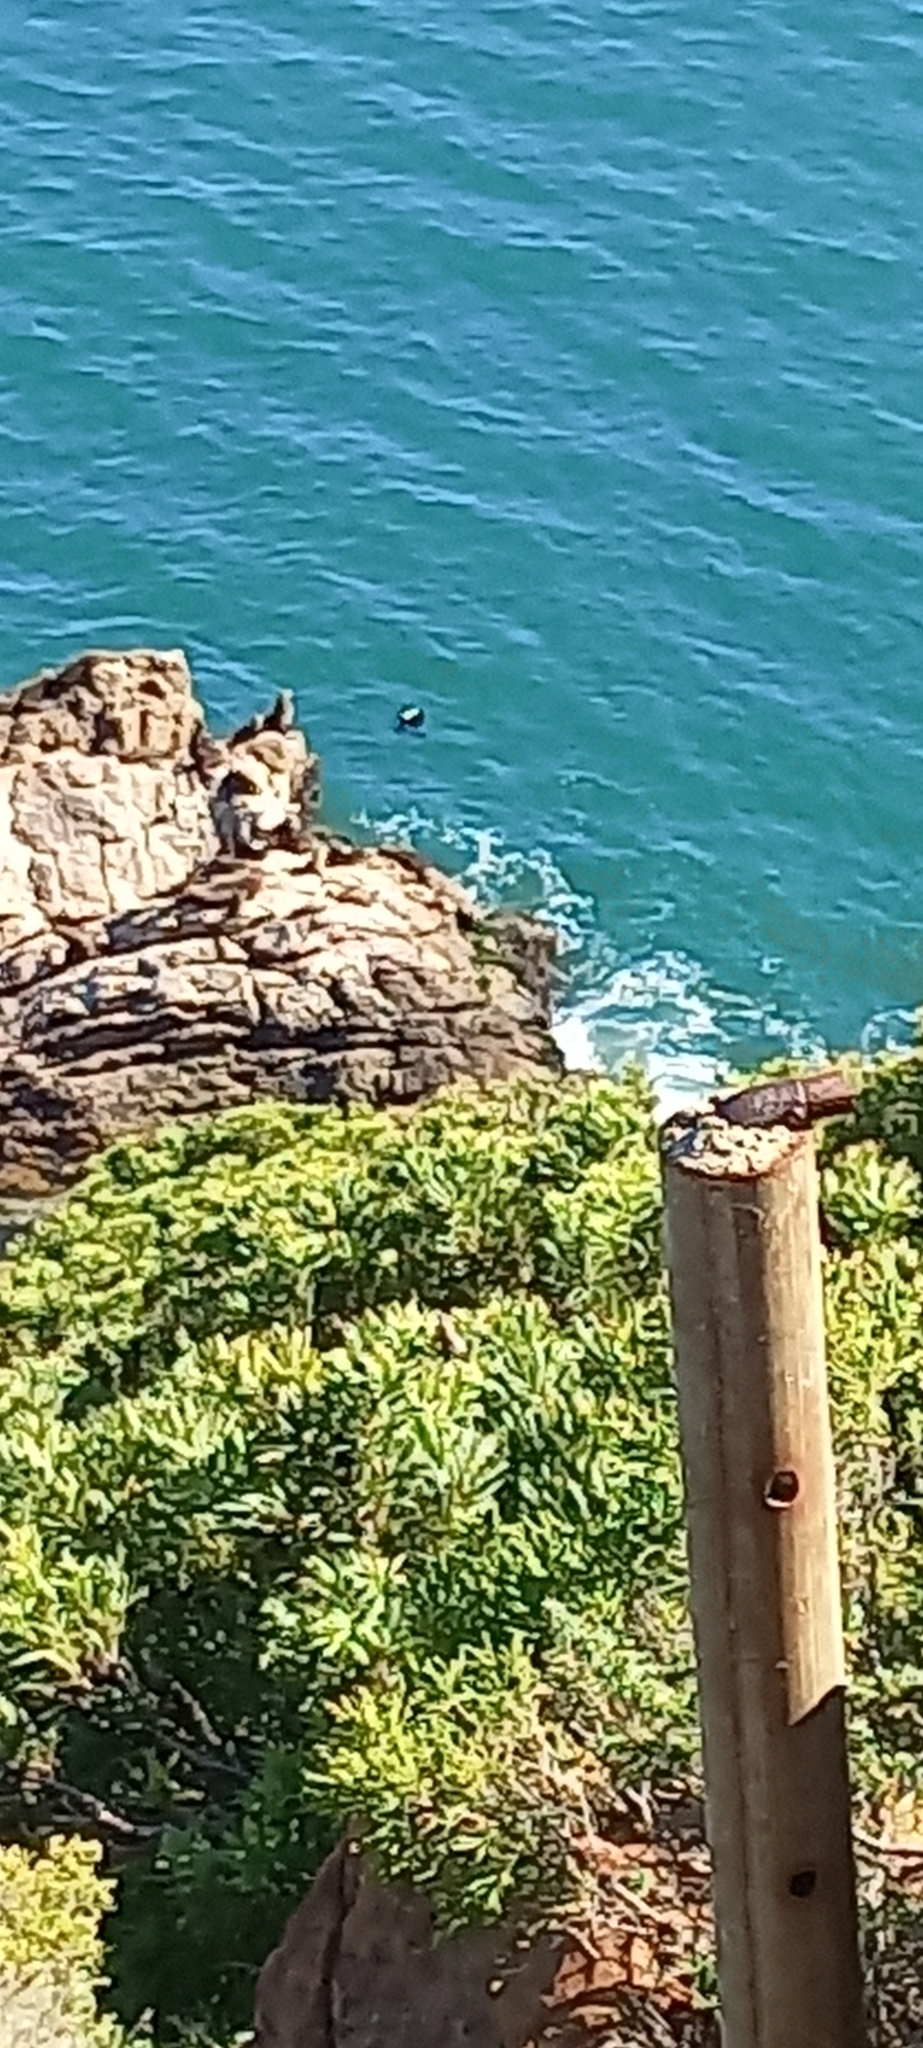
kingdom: Animalia
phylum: Chordata
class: Mammalia
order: Carnivora
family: Otariidae
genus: Arctocephalus
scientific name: Arctocephalus pusillus
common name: Brown fur seal
